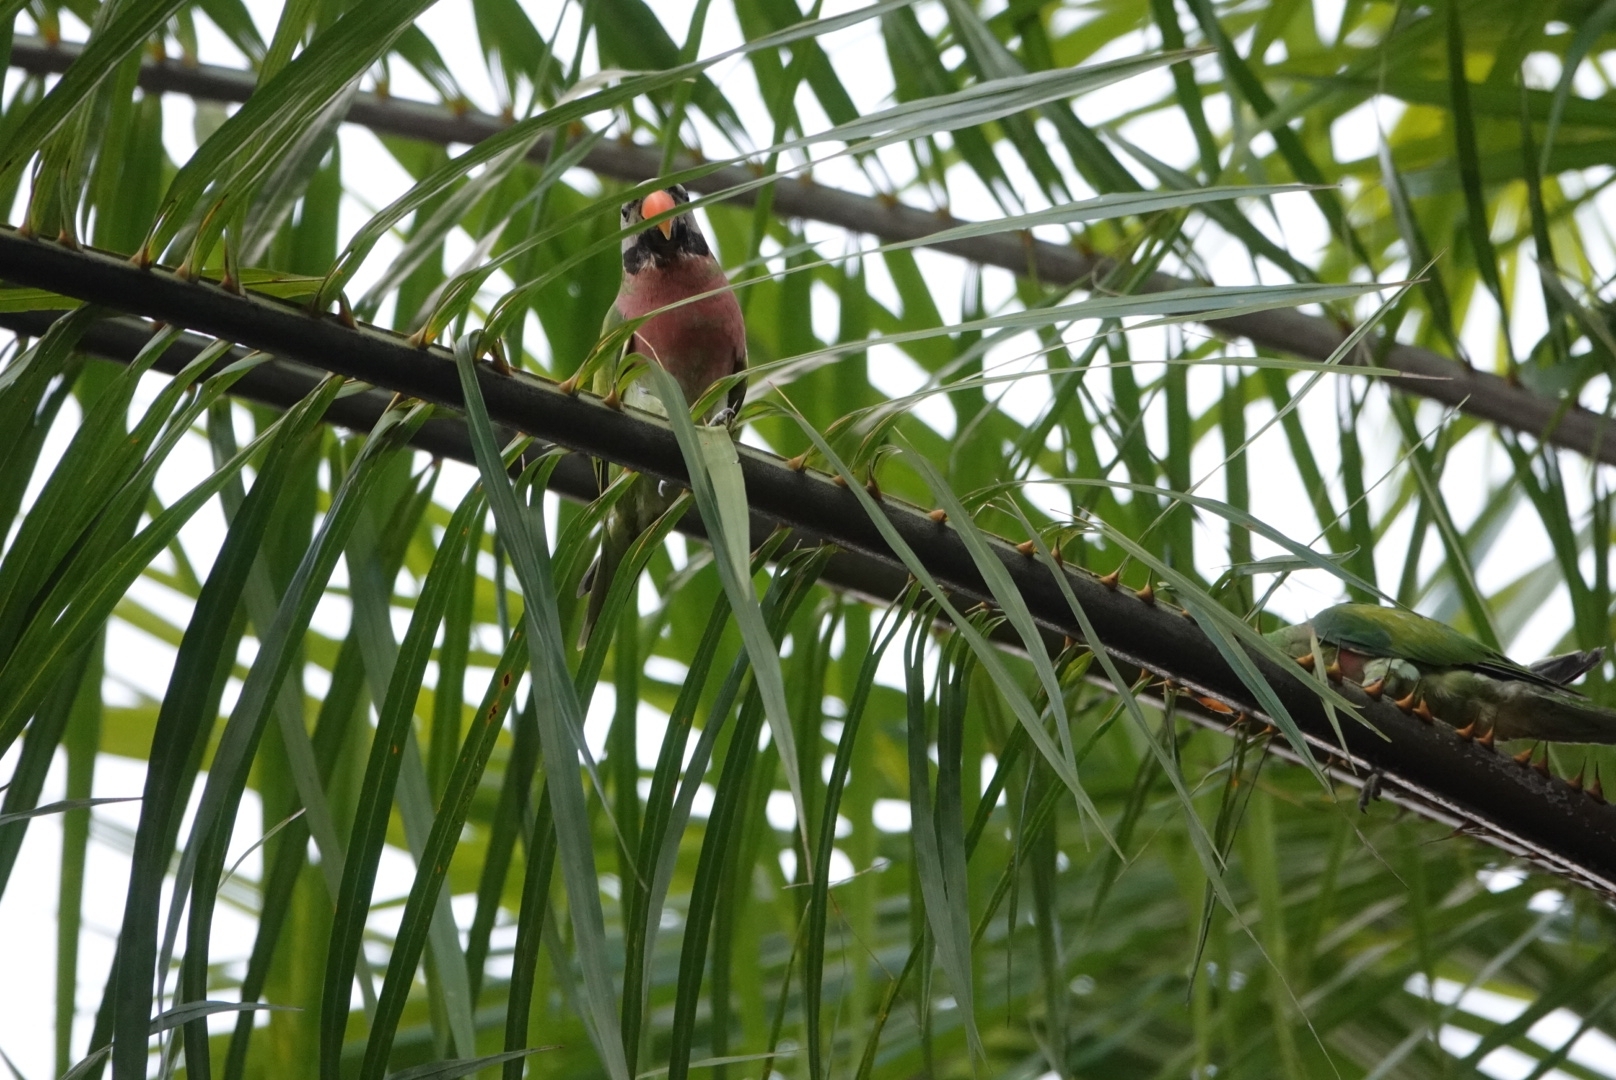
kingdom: Animalia
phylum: Chordata
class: Aves
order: Psittaciformes
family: Psittacidae
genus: Psittacula
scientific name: Psittacula alexandri
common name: Red-breasted parakeet
